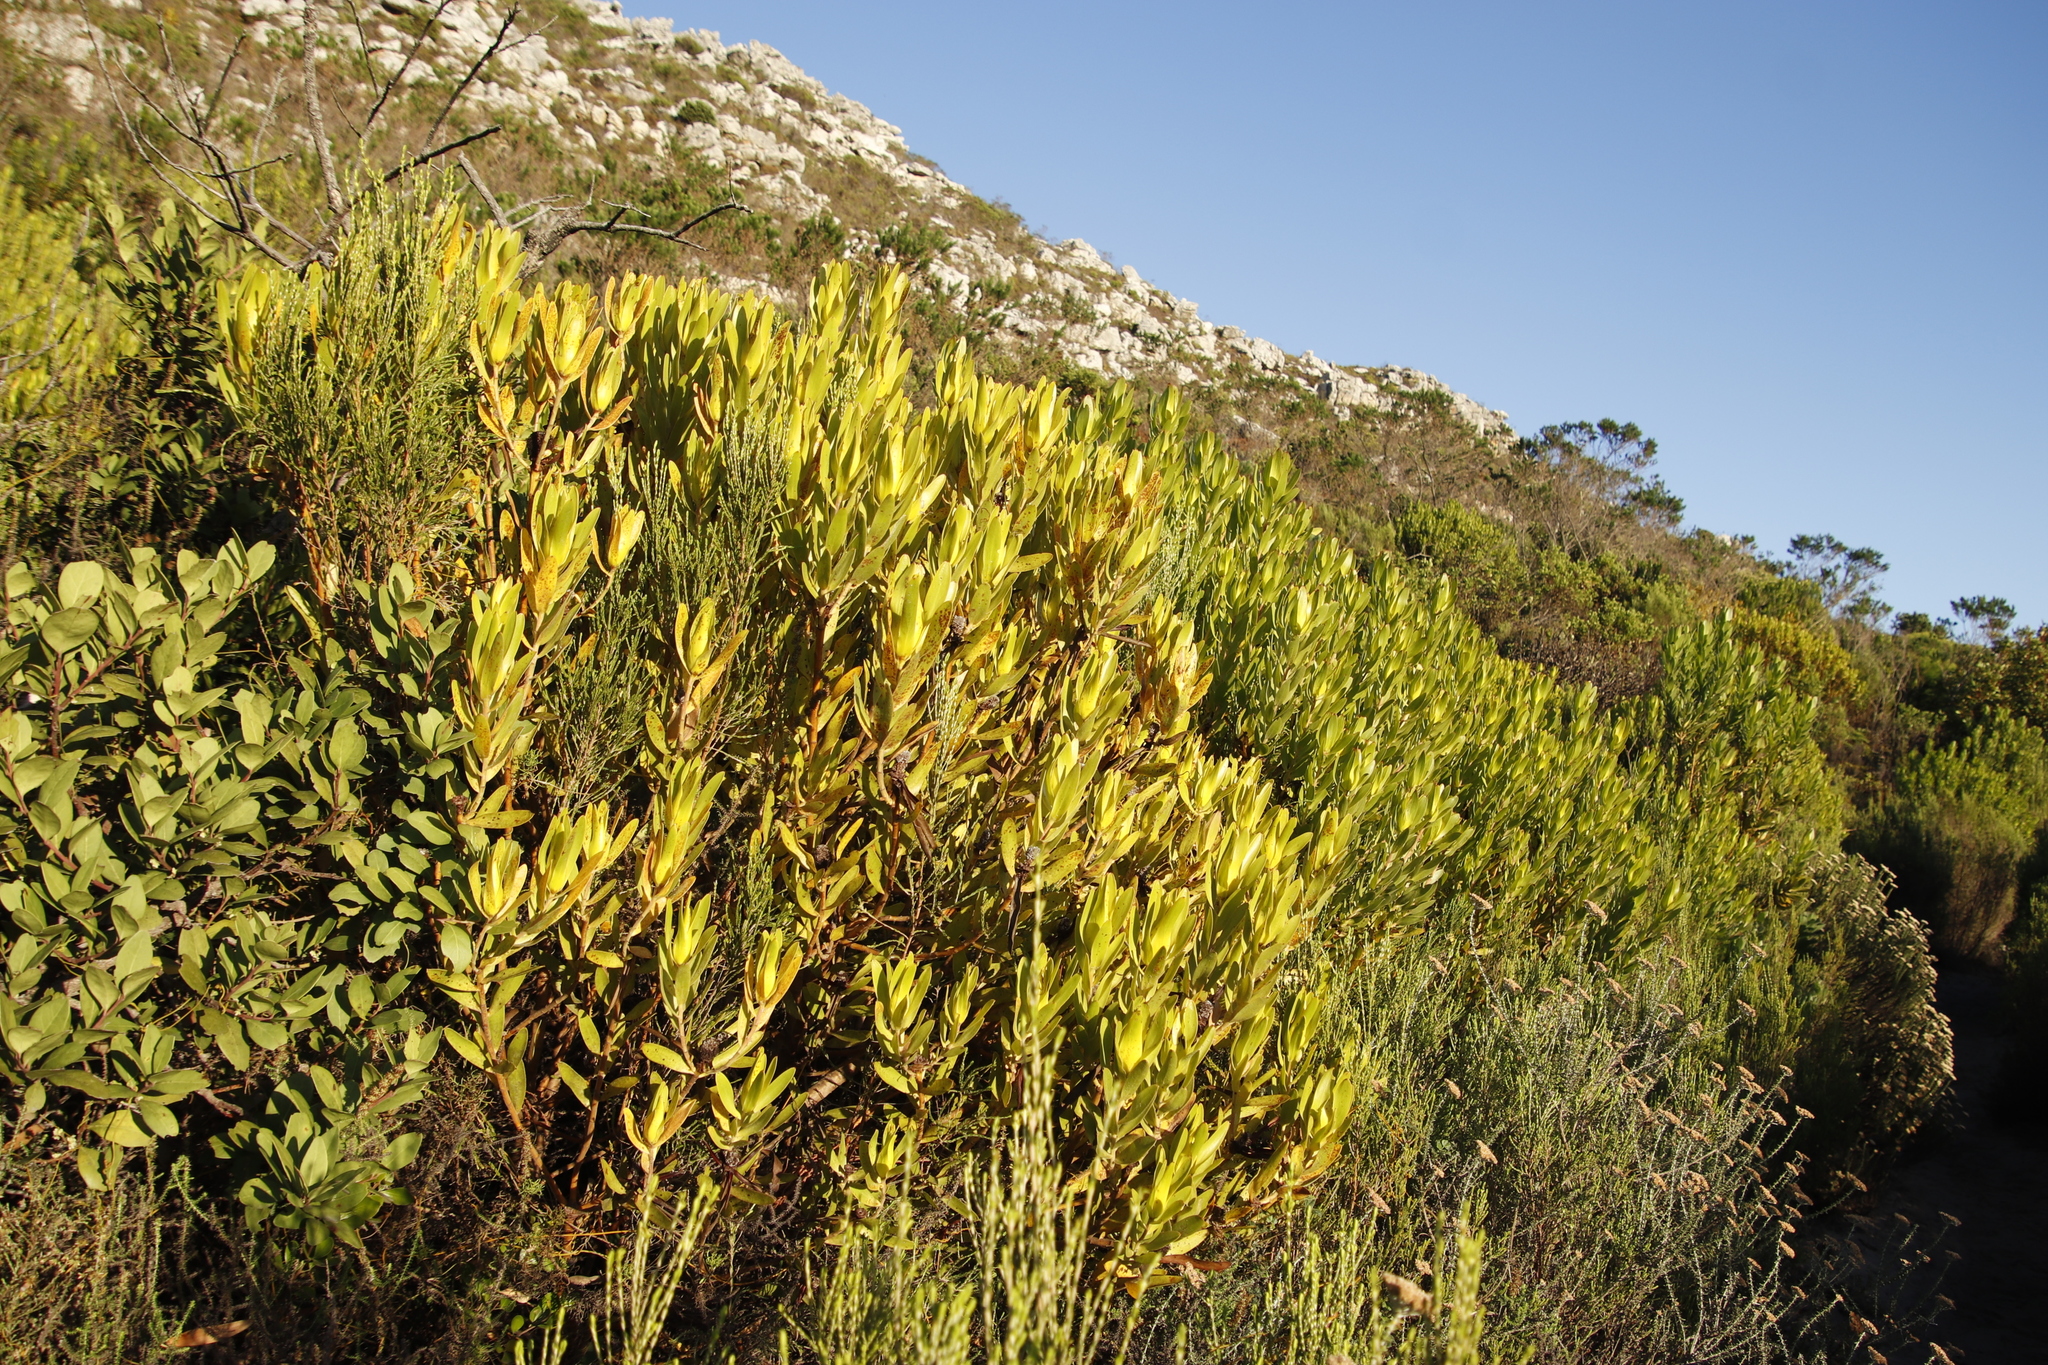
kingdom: Plantae
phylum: Tracheophyta
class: Magnoliopsida
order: Proteales
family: Proteaceae
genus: Leucadendron
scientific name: Leucadendron laureolum
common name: Golden sunshinebush
